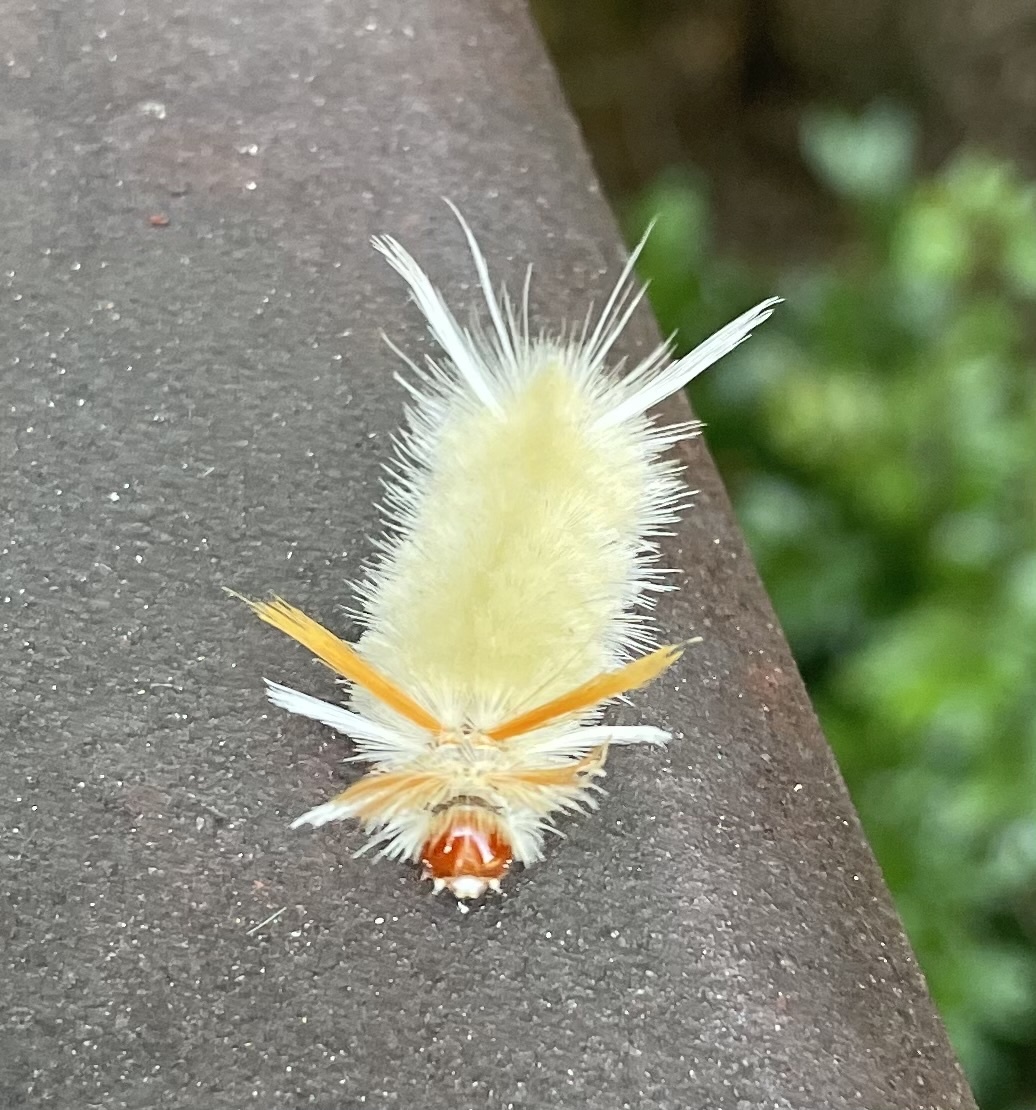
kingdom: Animalia
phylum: Arthropoda
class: Insecta
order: Lepidoptera
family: Erebidae
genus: Halysidota
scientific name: Halysidota harrisii
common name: Sycamore tussock moth
